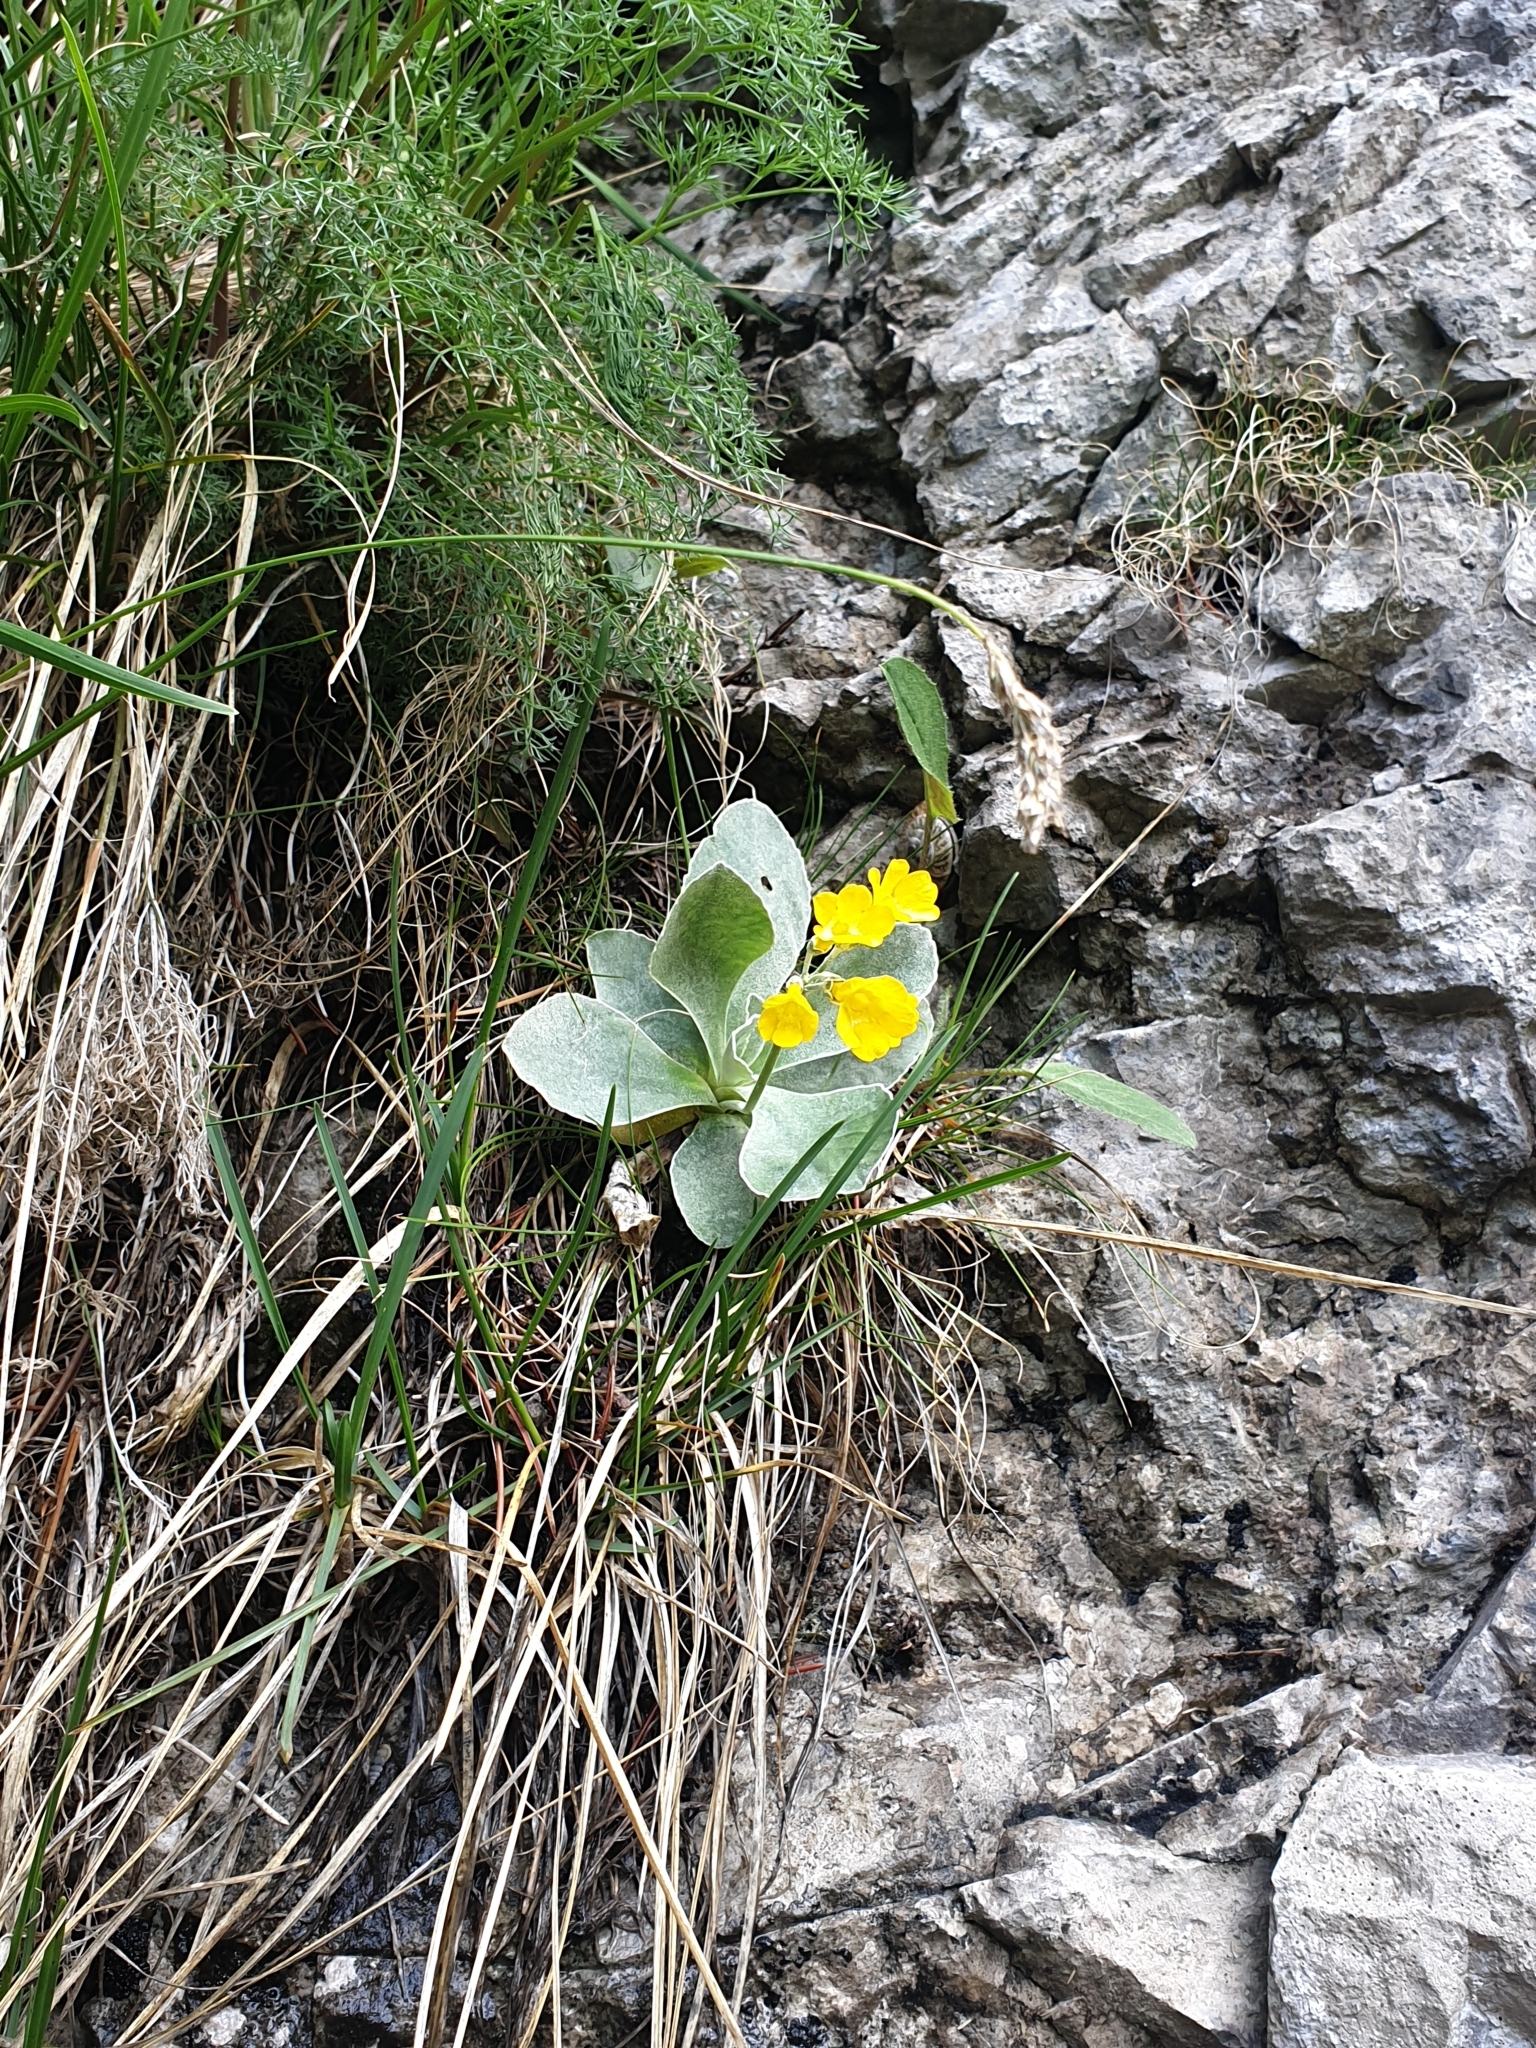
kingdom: Plantae
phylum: Tracheophyta
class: Magnoliopsida
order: Ericales
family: Primulaceae
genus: Primula
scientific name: Primula auricula
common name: Auricula
